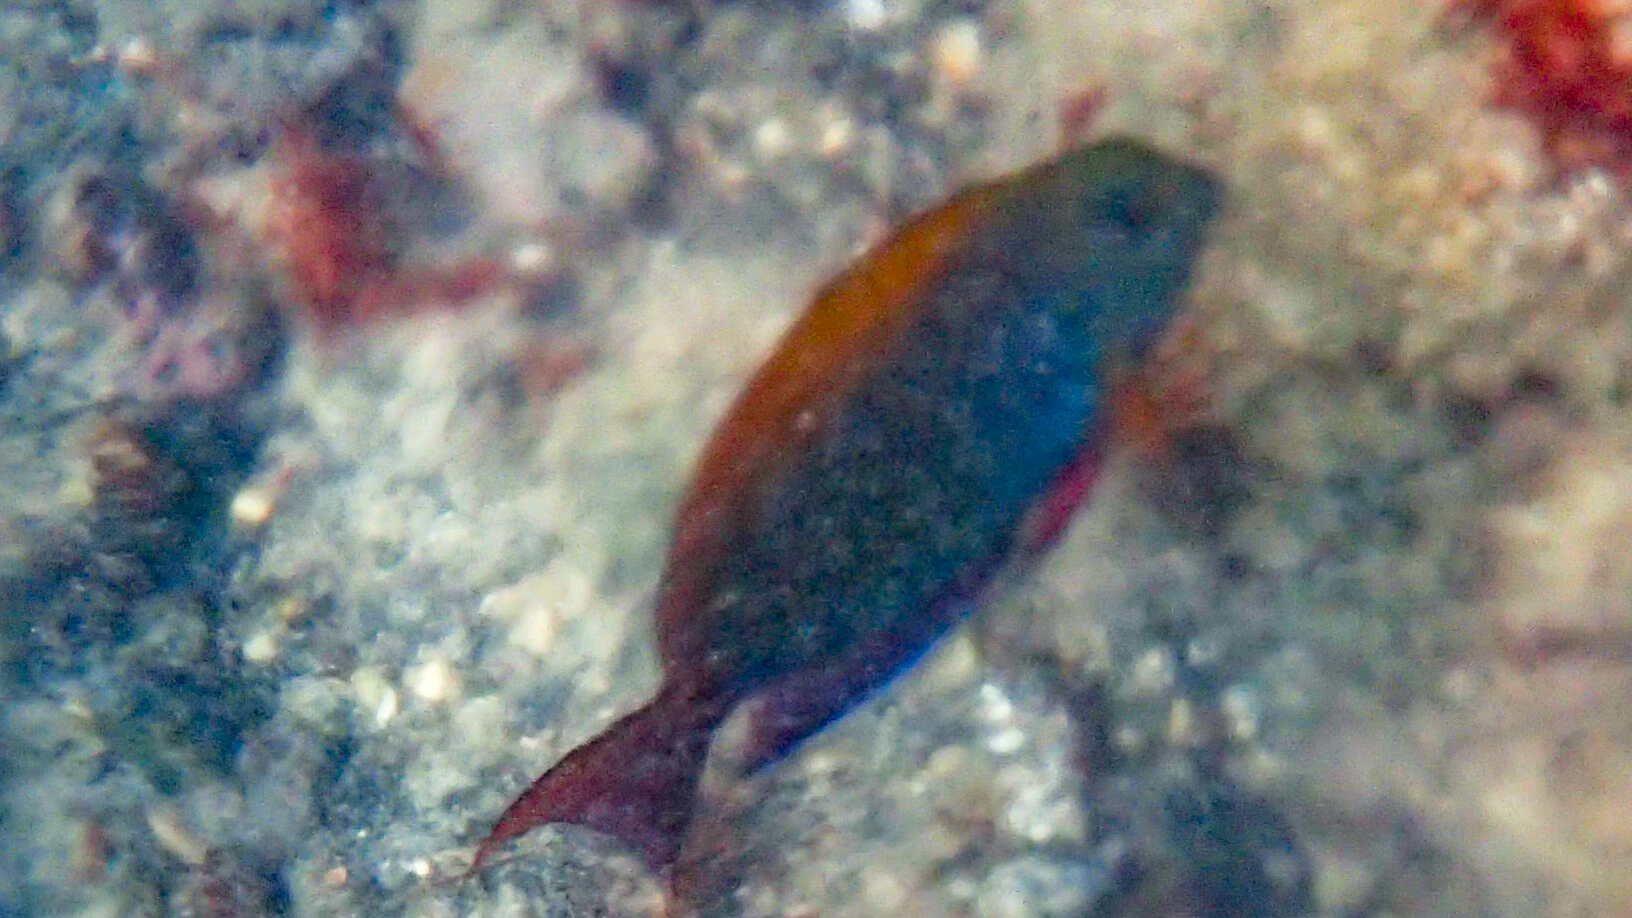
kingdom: Animalia
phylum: Chordata
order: Perciformes
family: Acanthuridae
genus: Acanthurus
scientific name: Acanthurus nigrofuscus
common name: Blackspot surgeonfish
